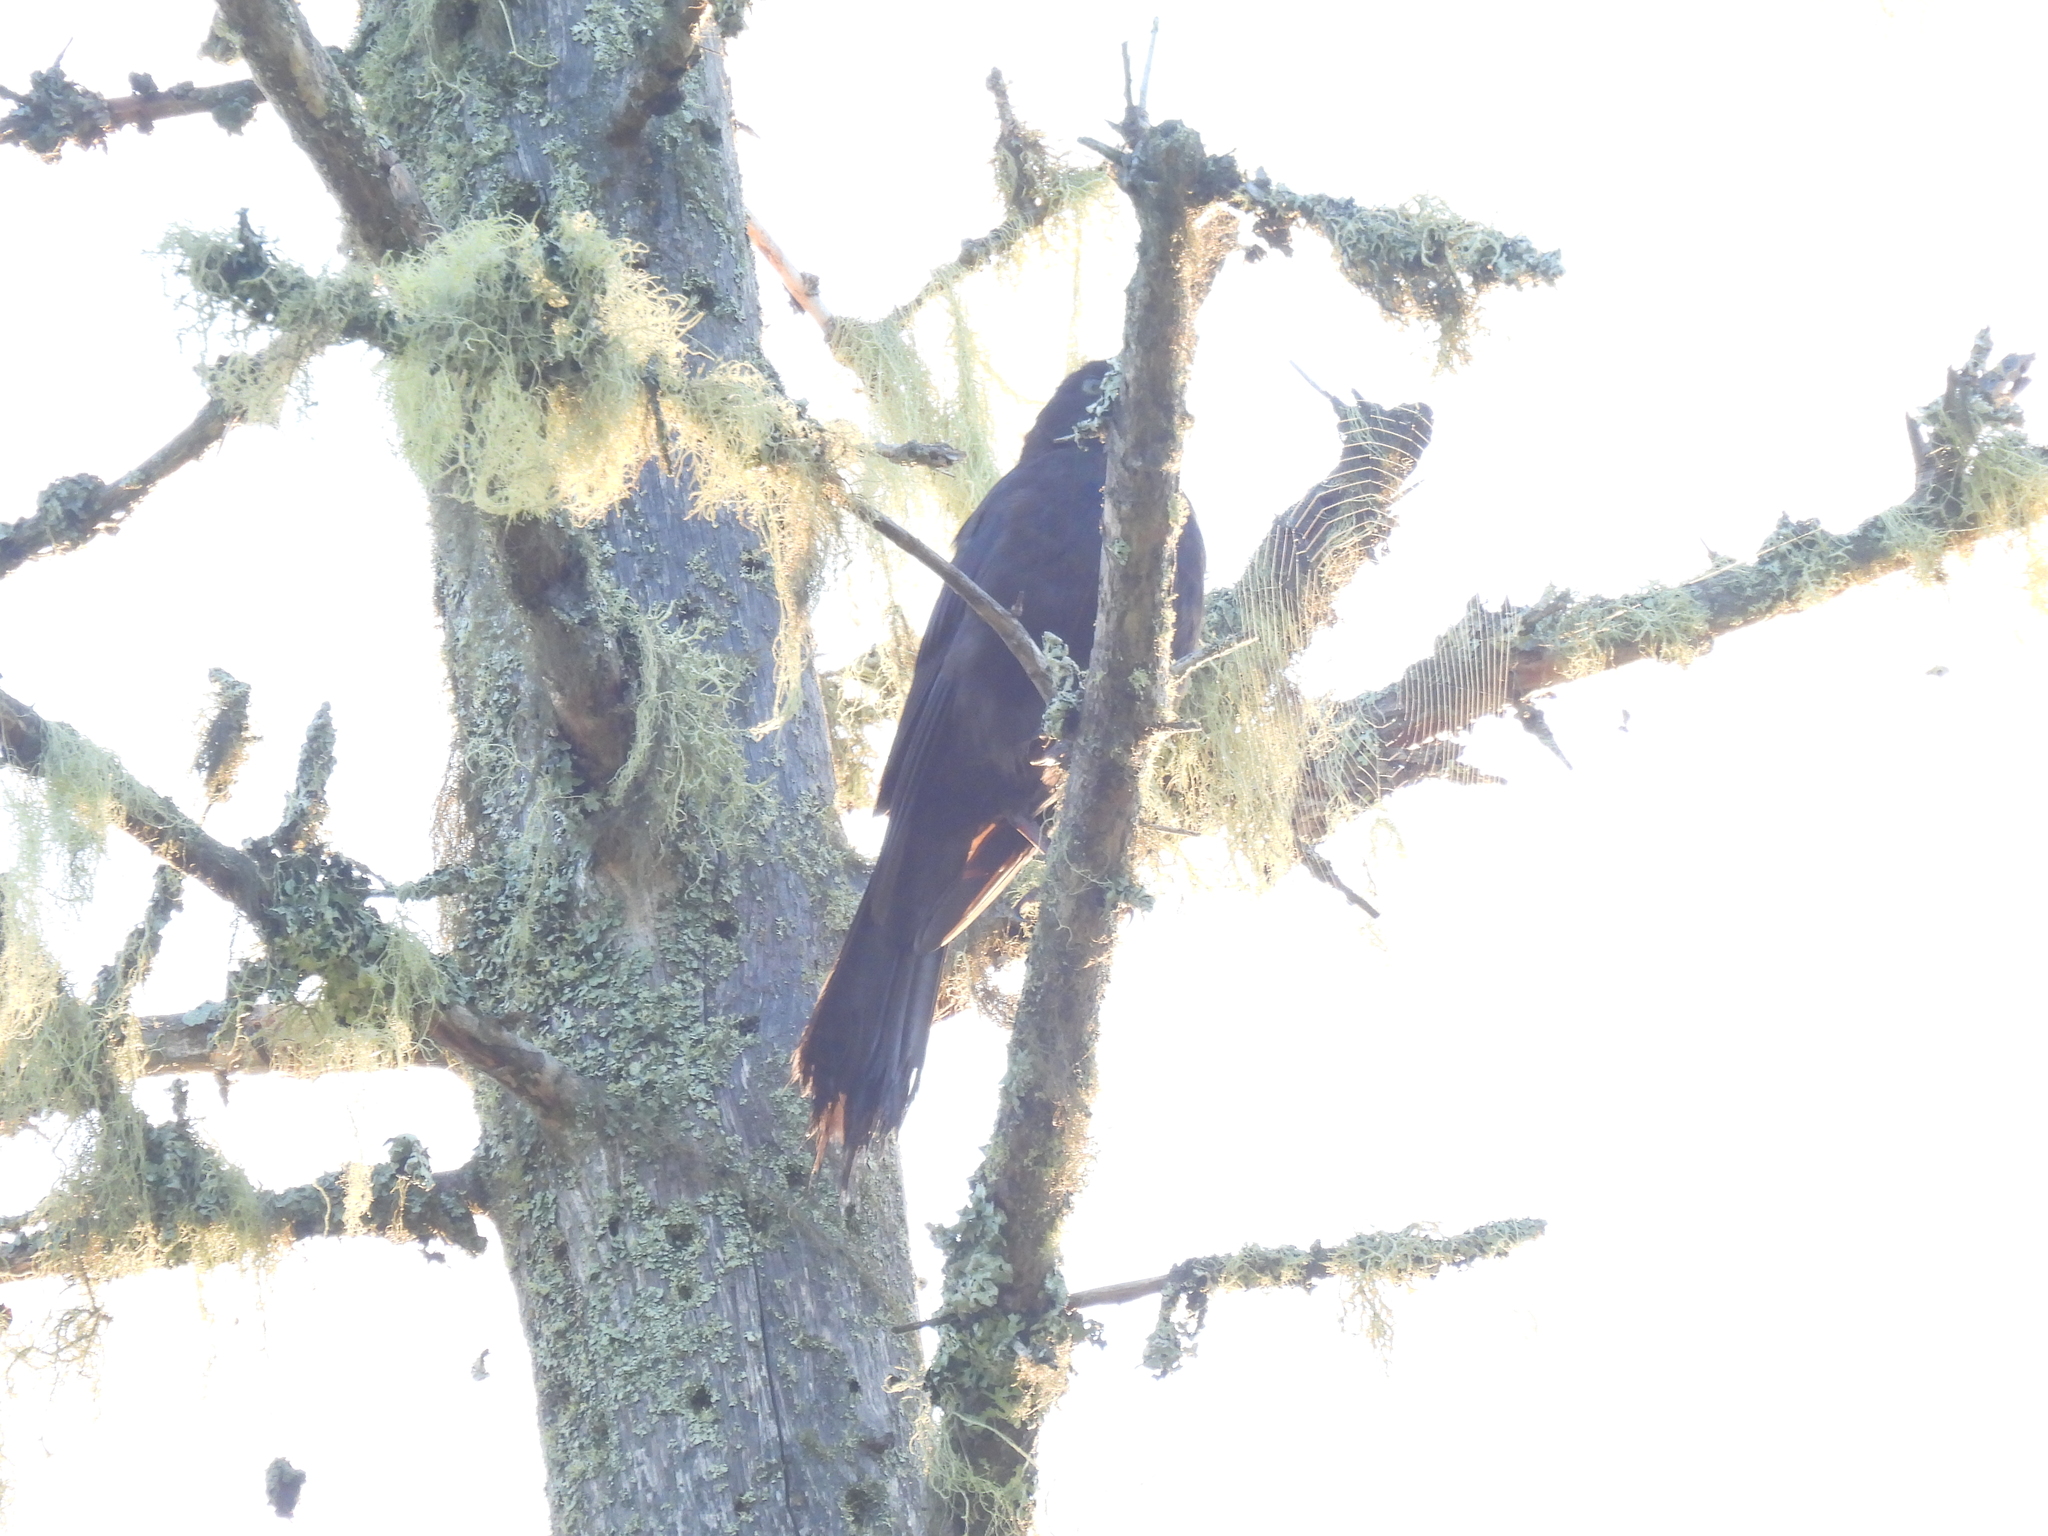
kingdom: Animalia
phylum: Chordata
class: Aves
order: Passeriformes
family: Icteridae
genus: Quiscalus
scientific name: Quiscalus quiscula
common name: Common grackle
